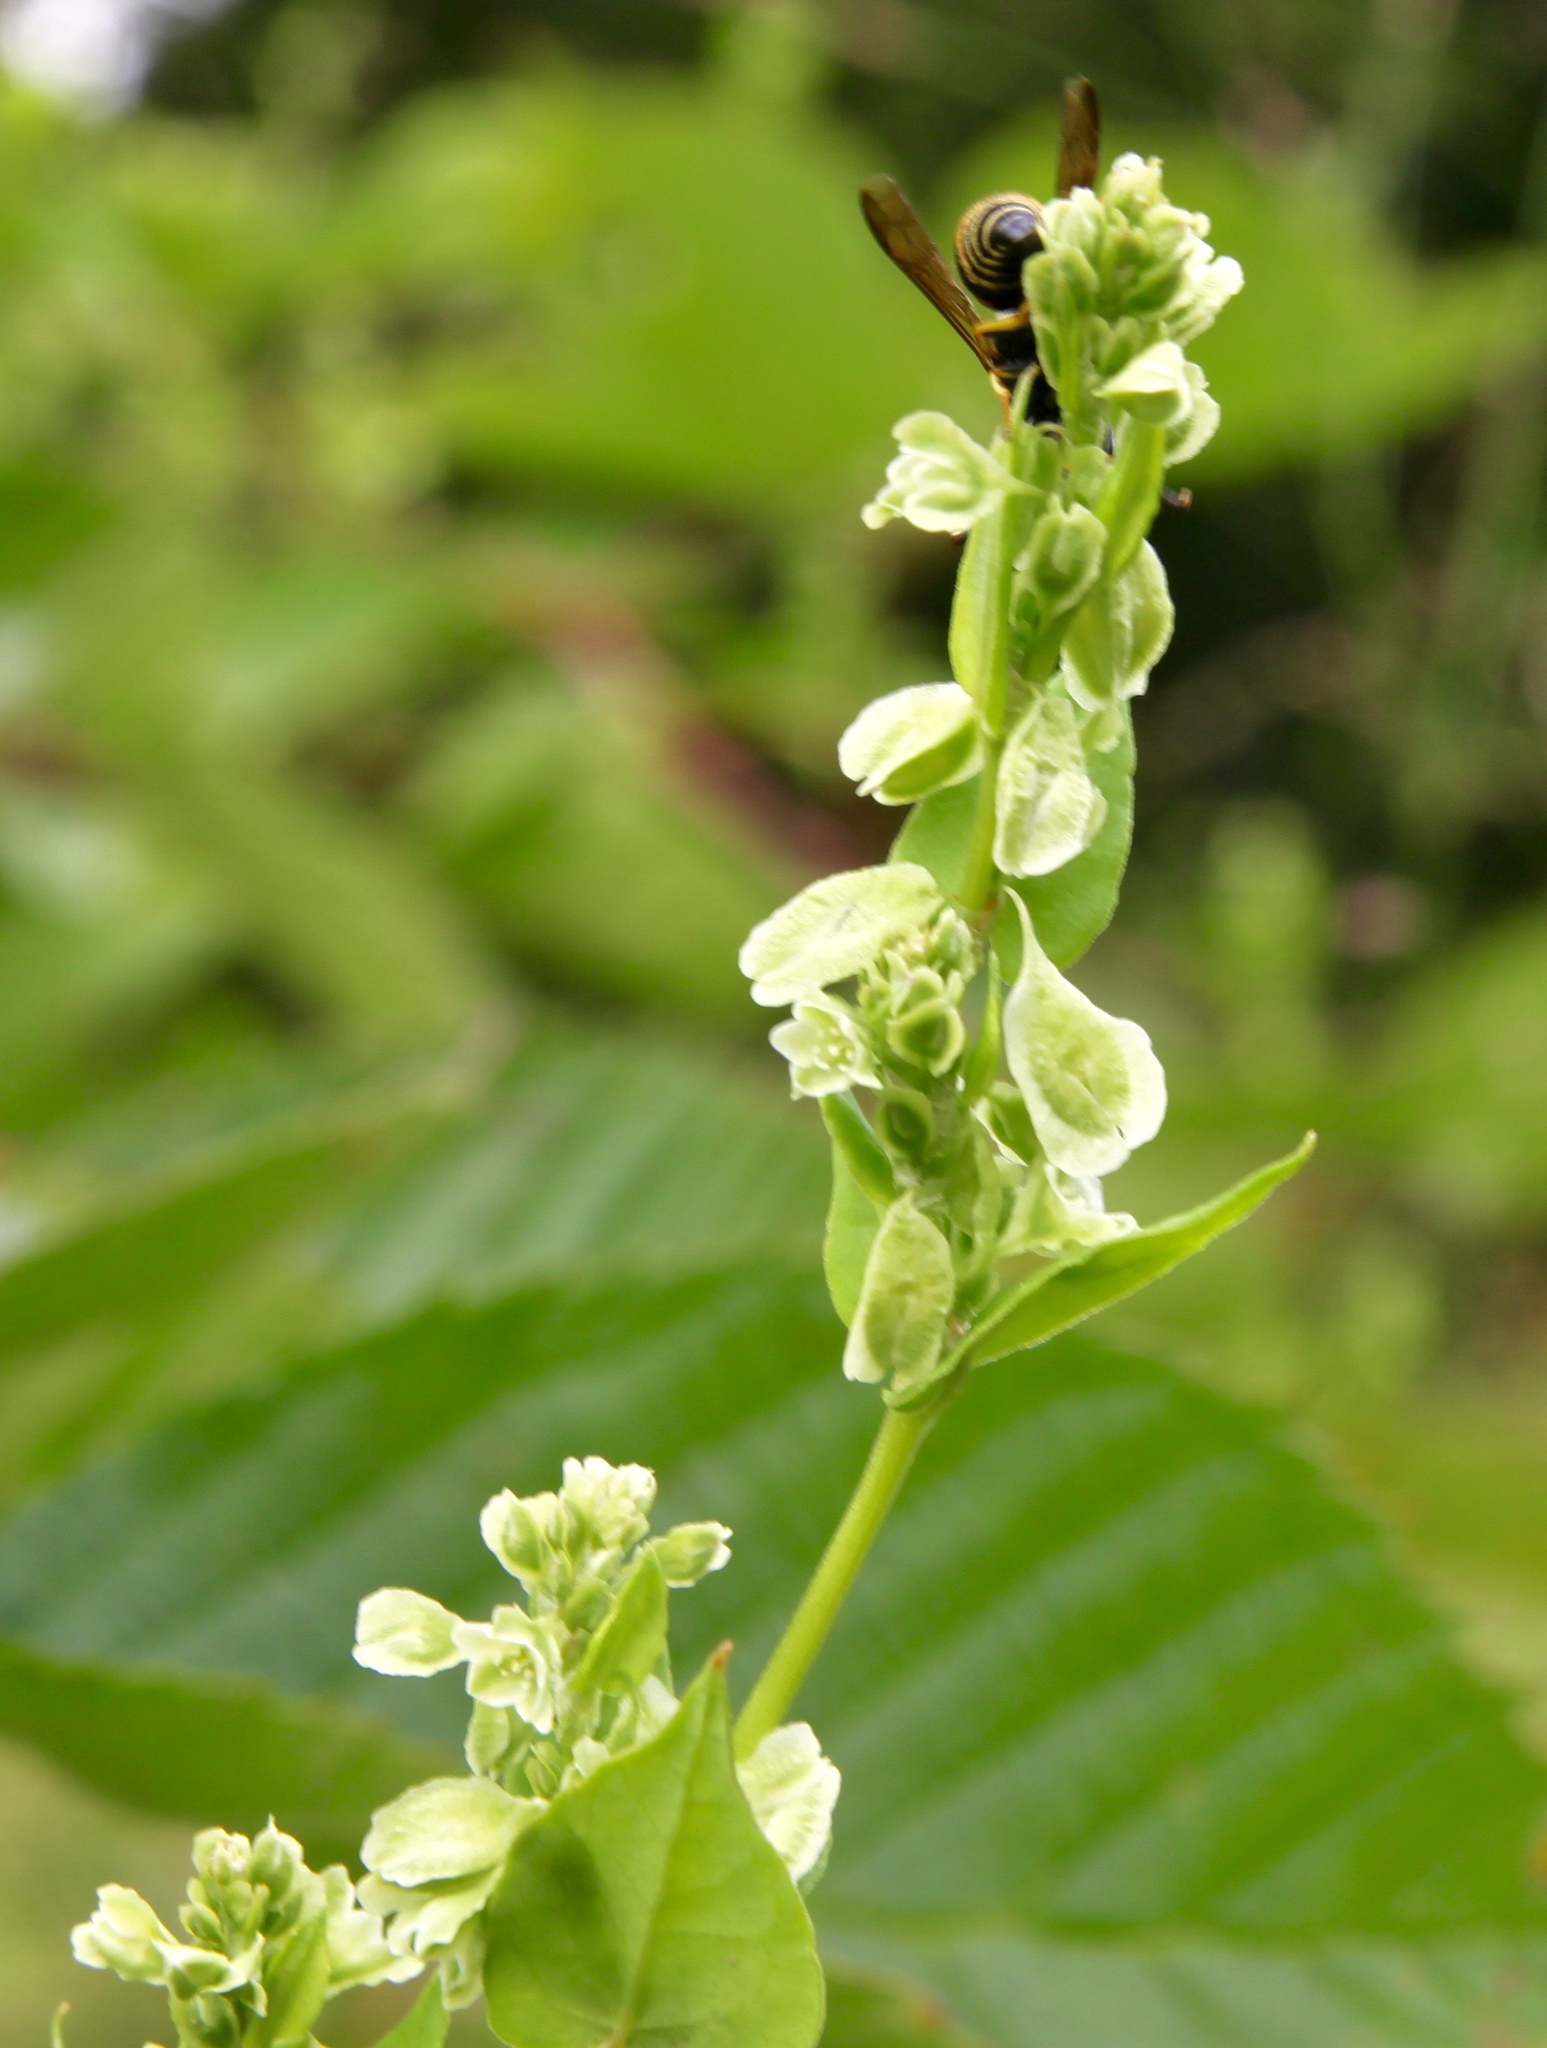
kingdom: Plantae
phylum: Tracheophyta
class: Magnoliopsida
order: Caryophyllales
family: Polygonaceae
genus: Fallopia
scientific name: Fallopia scandens
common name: Climbing false buckwheat
